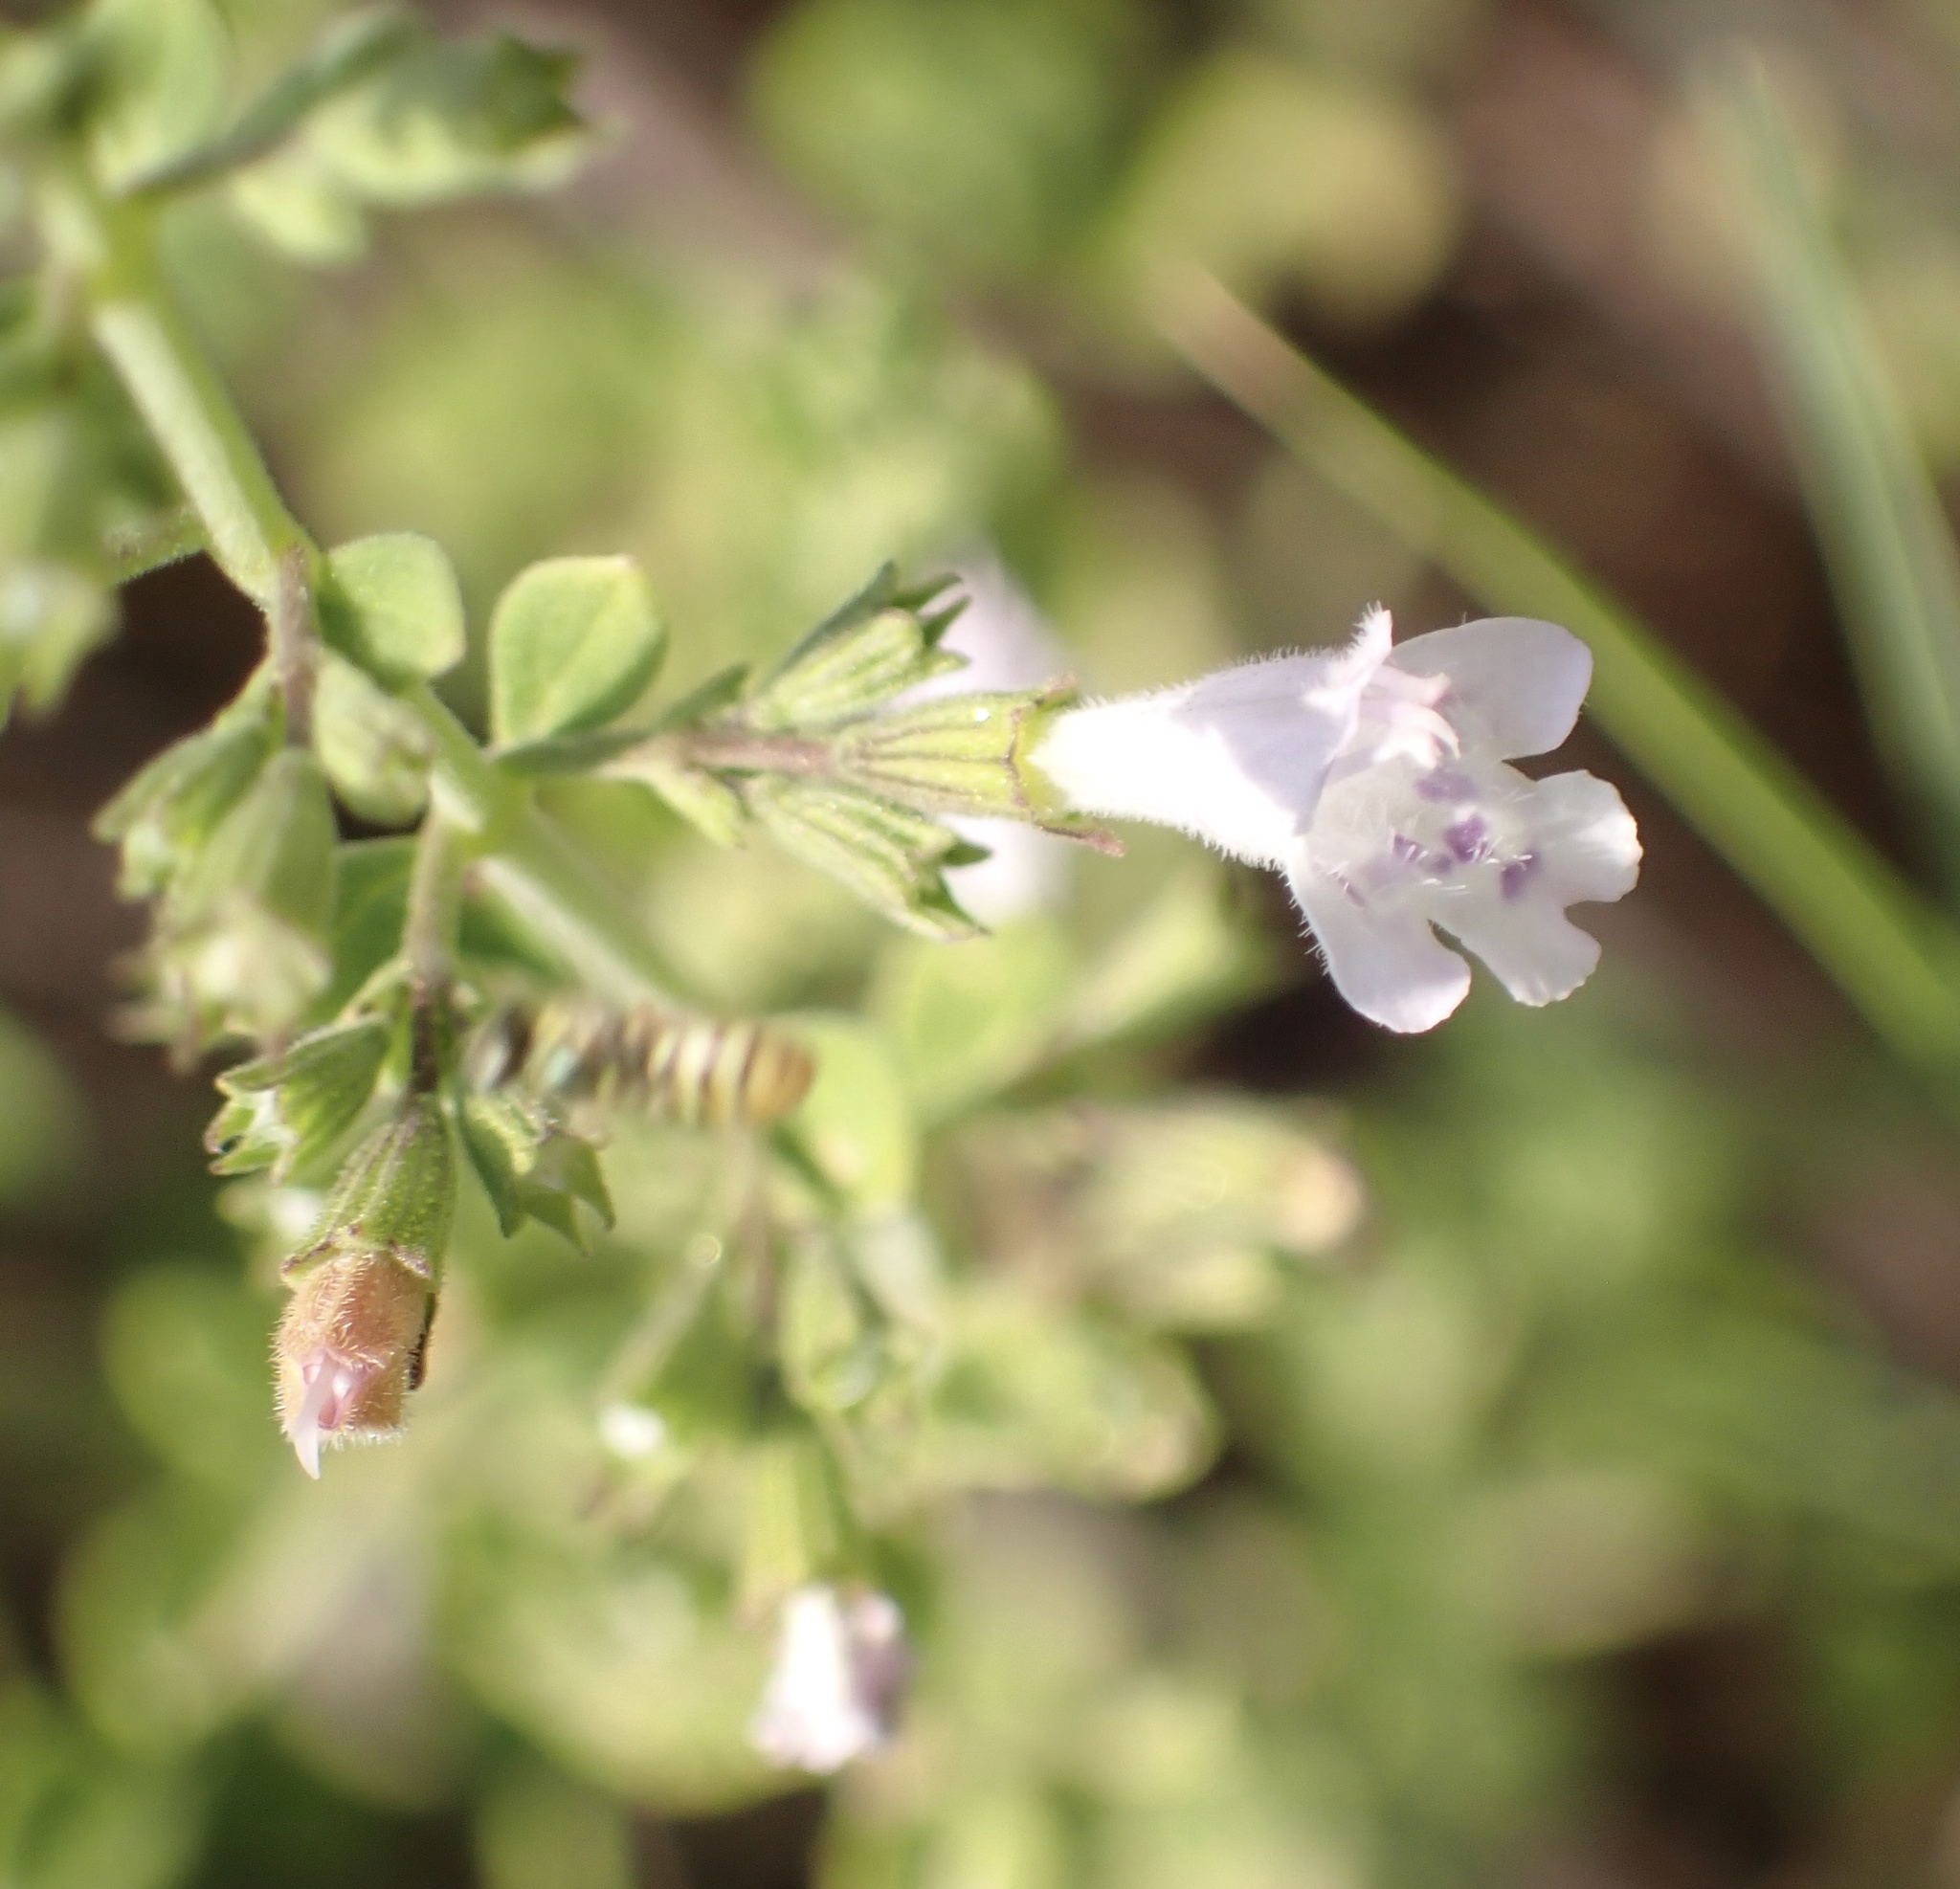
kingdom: Plantae
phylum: Tracheophyta
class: Magnoliopsida
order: Lamiales
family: Lamiaceae
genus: Clinopodium
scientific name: Clinopodium nepeta
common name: Lesser calamint
